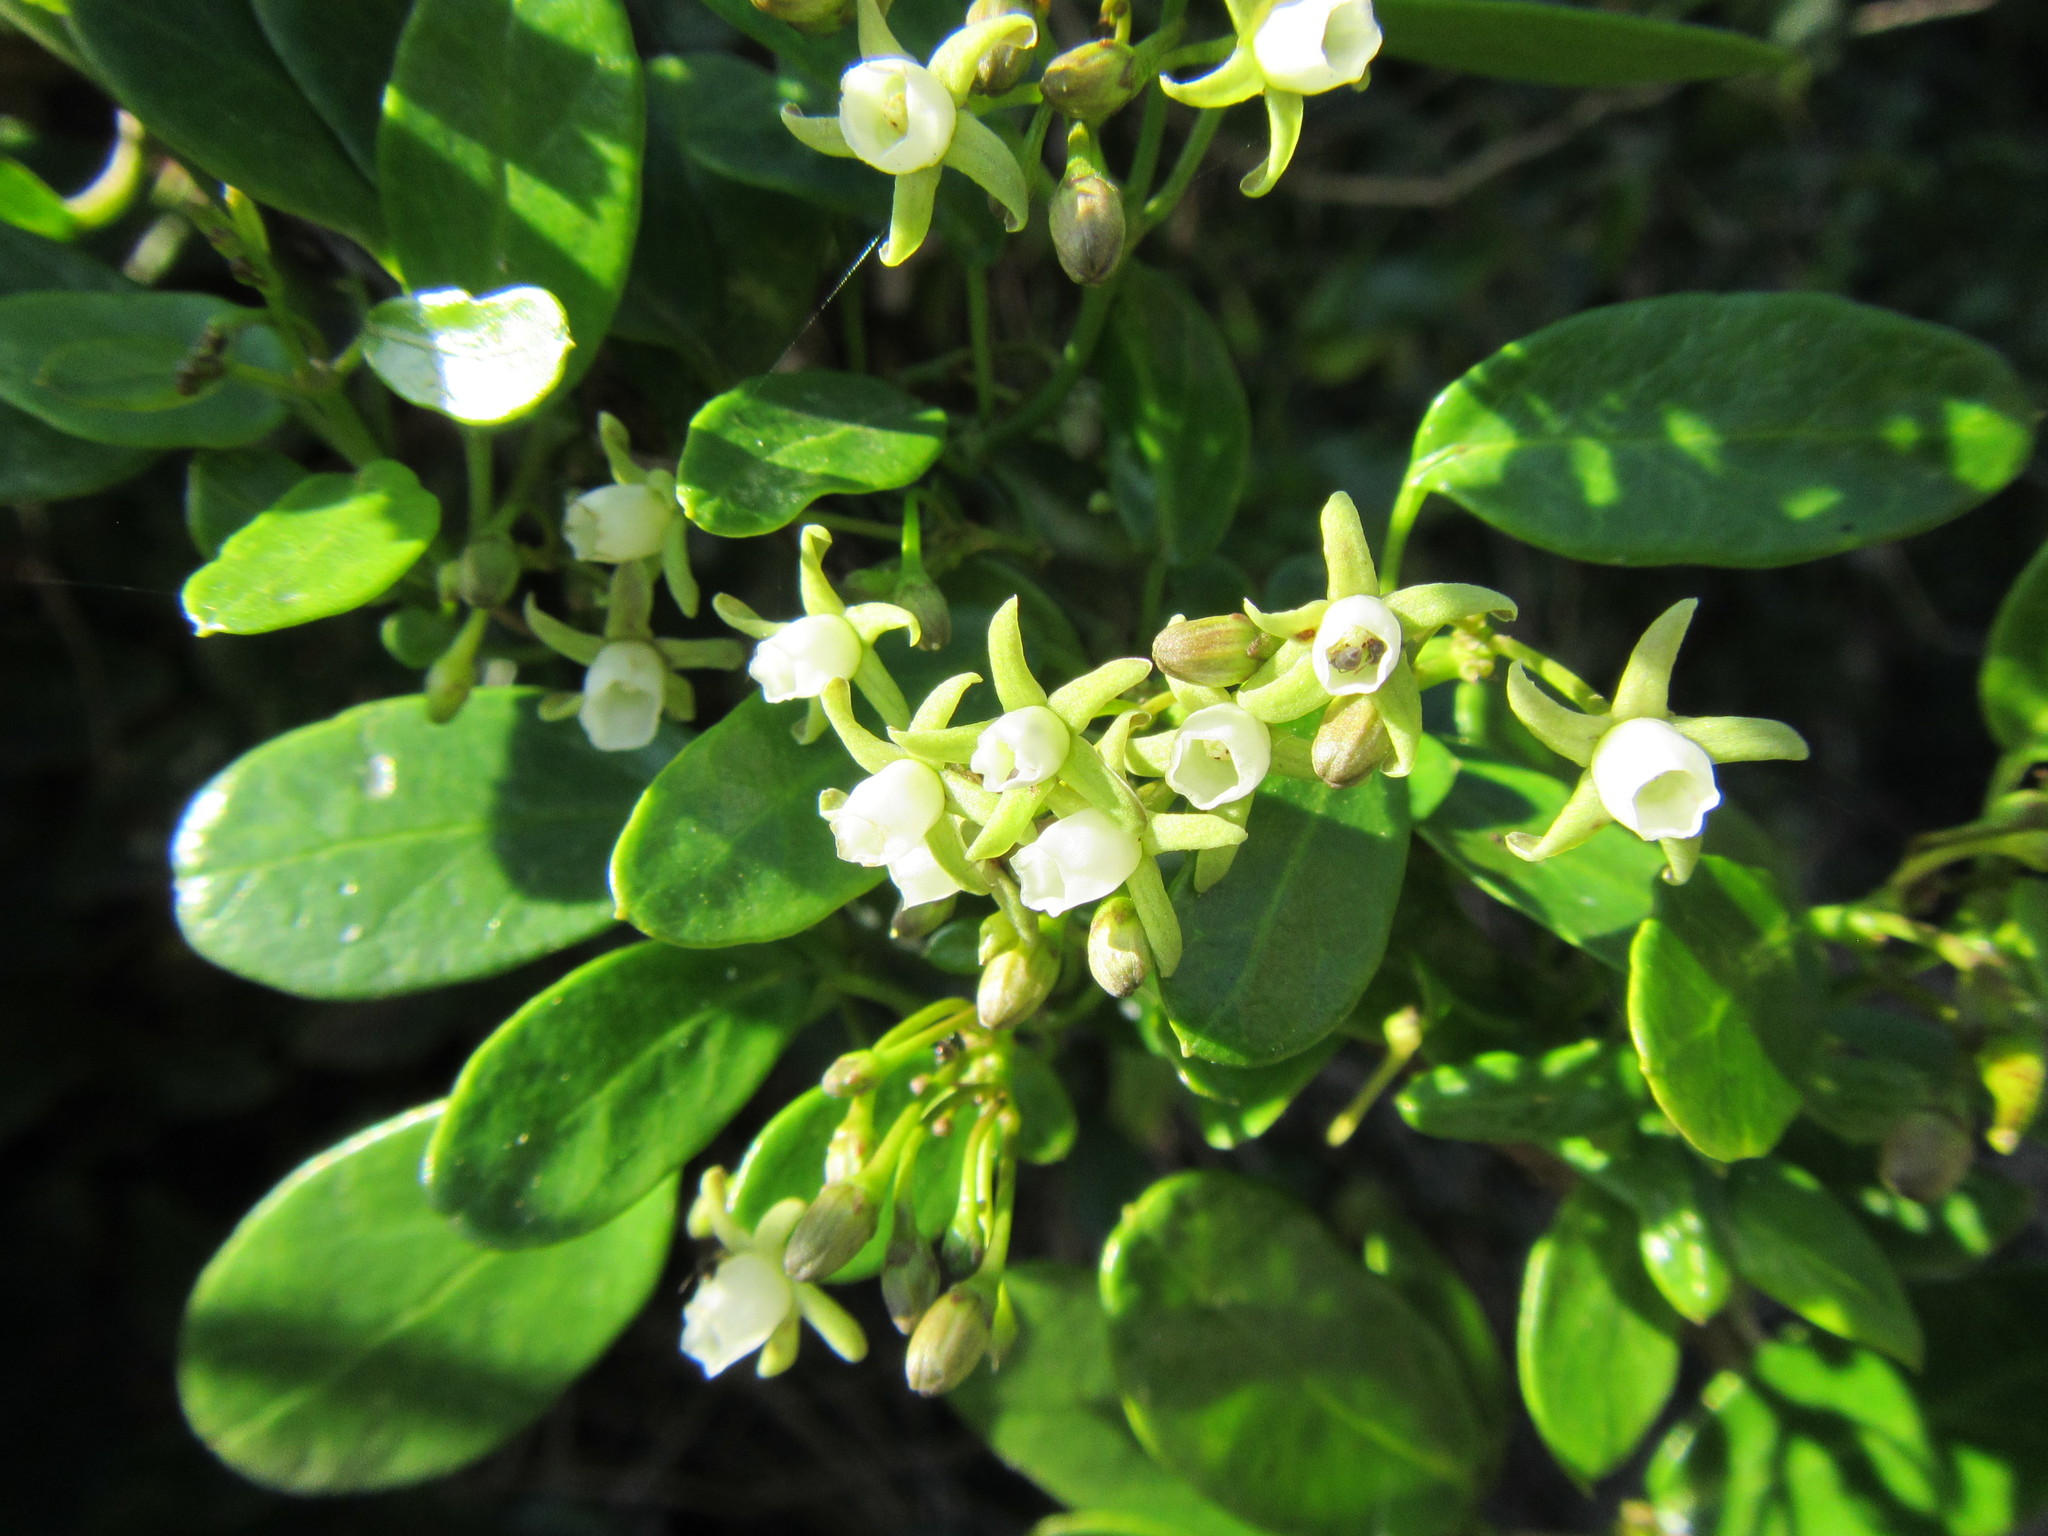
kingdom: Plantae
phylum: Tracheophyta
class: Magnoliopsida
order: Gentianales
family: Apocynaceae
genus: Cynanchum
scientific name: Cynanchum ellipticum
